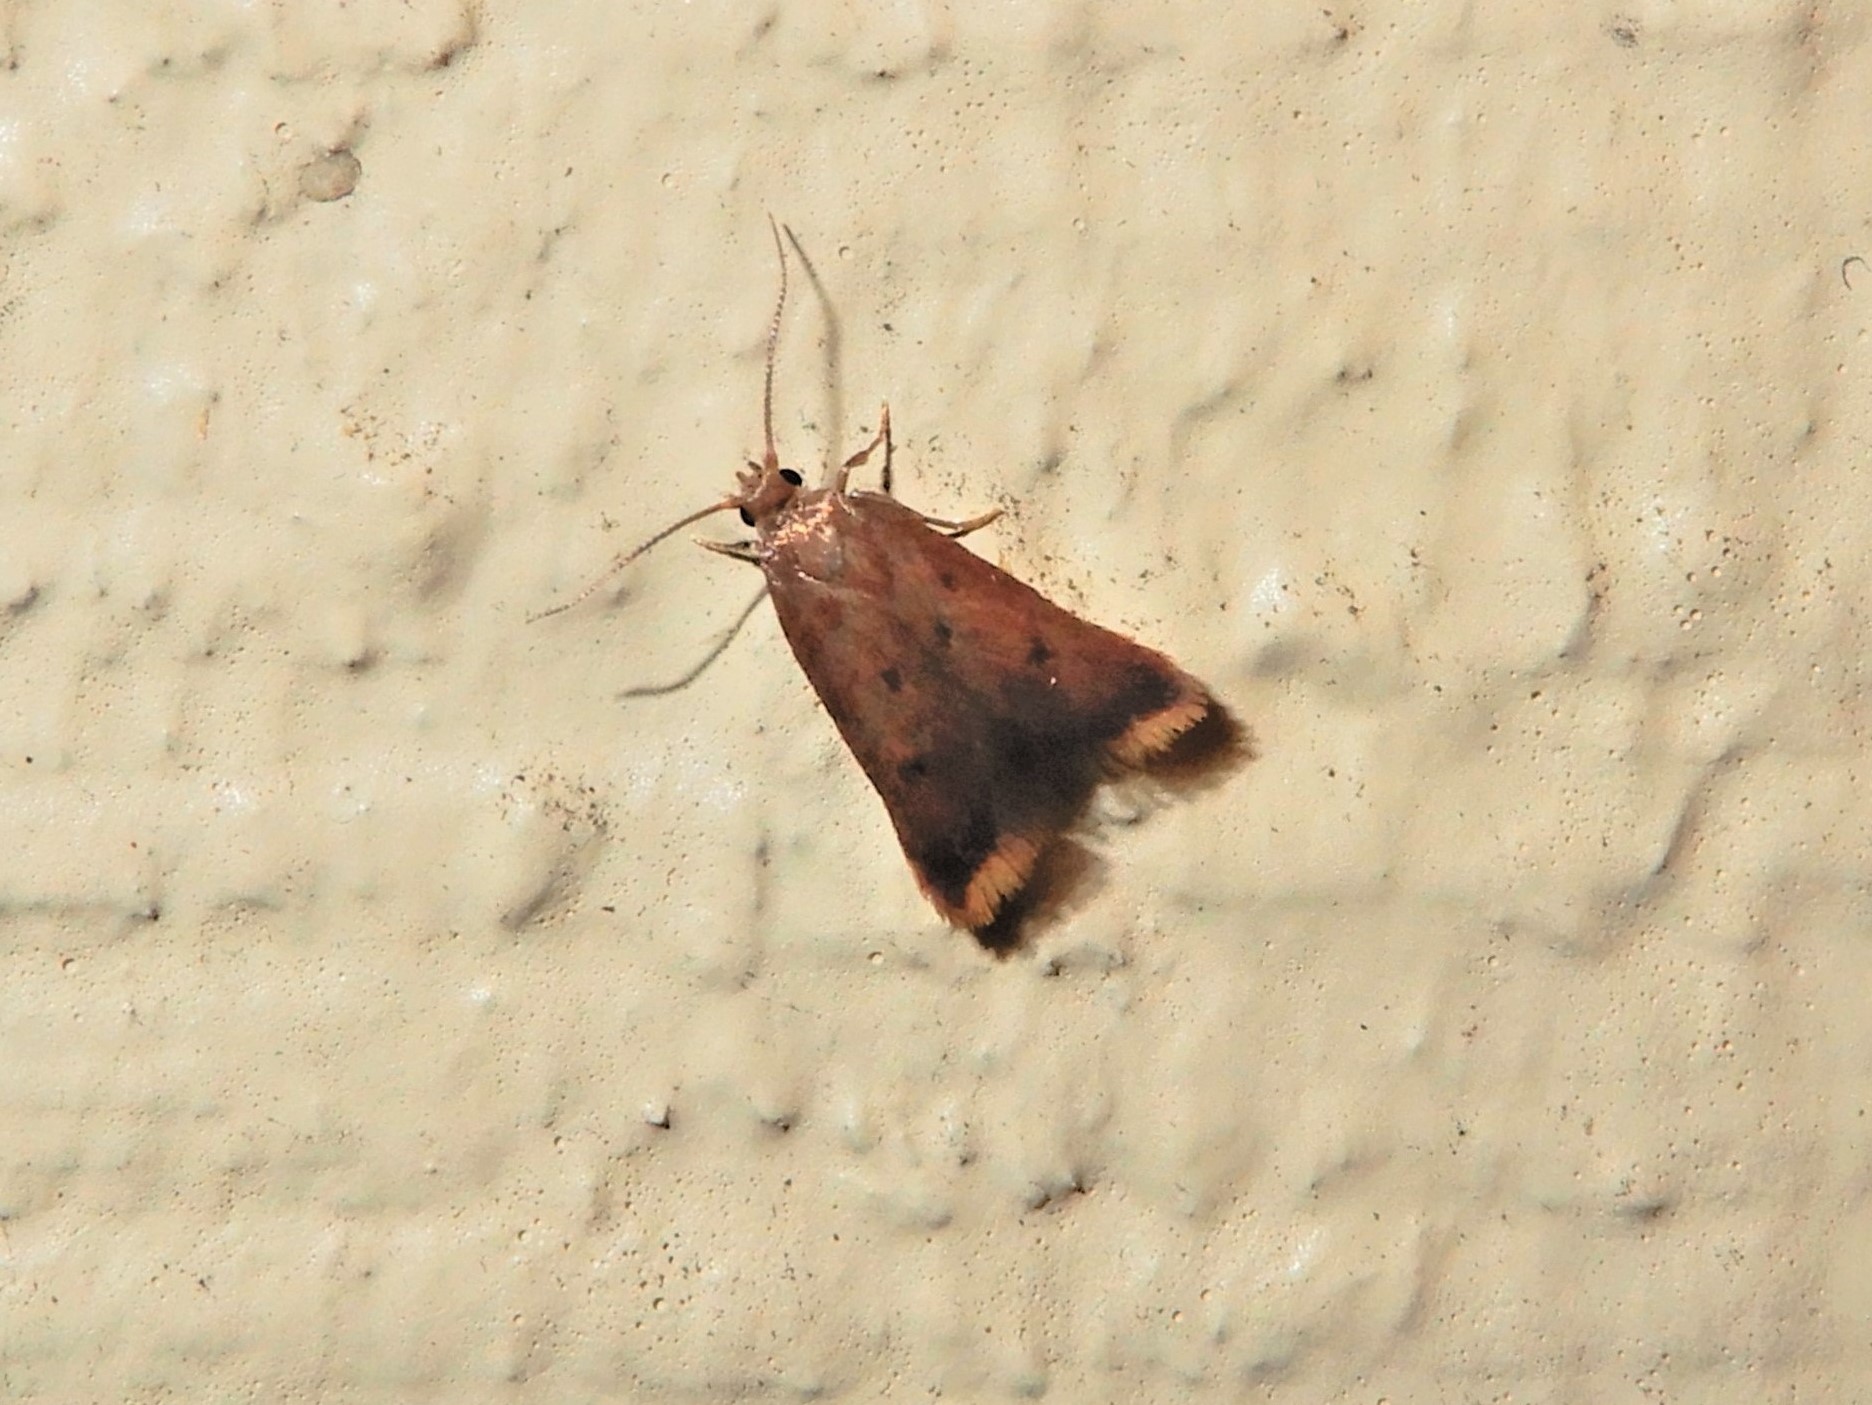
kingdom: Animalia
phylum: Arthropoda
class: Insecta
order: Lepidoptera
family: Oecophoridae
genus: Tachystola
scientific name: Tachystola acroxantha
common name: Ruddy streak
